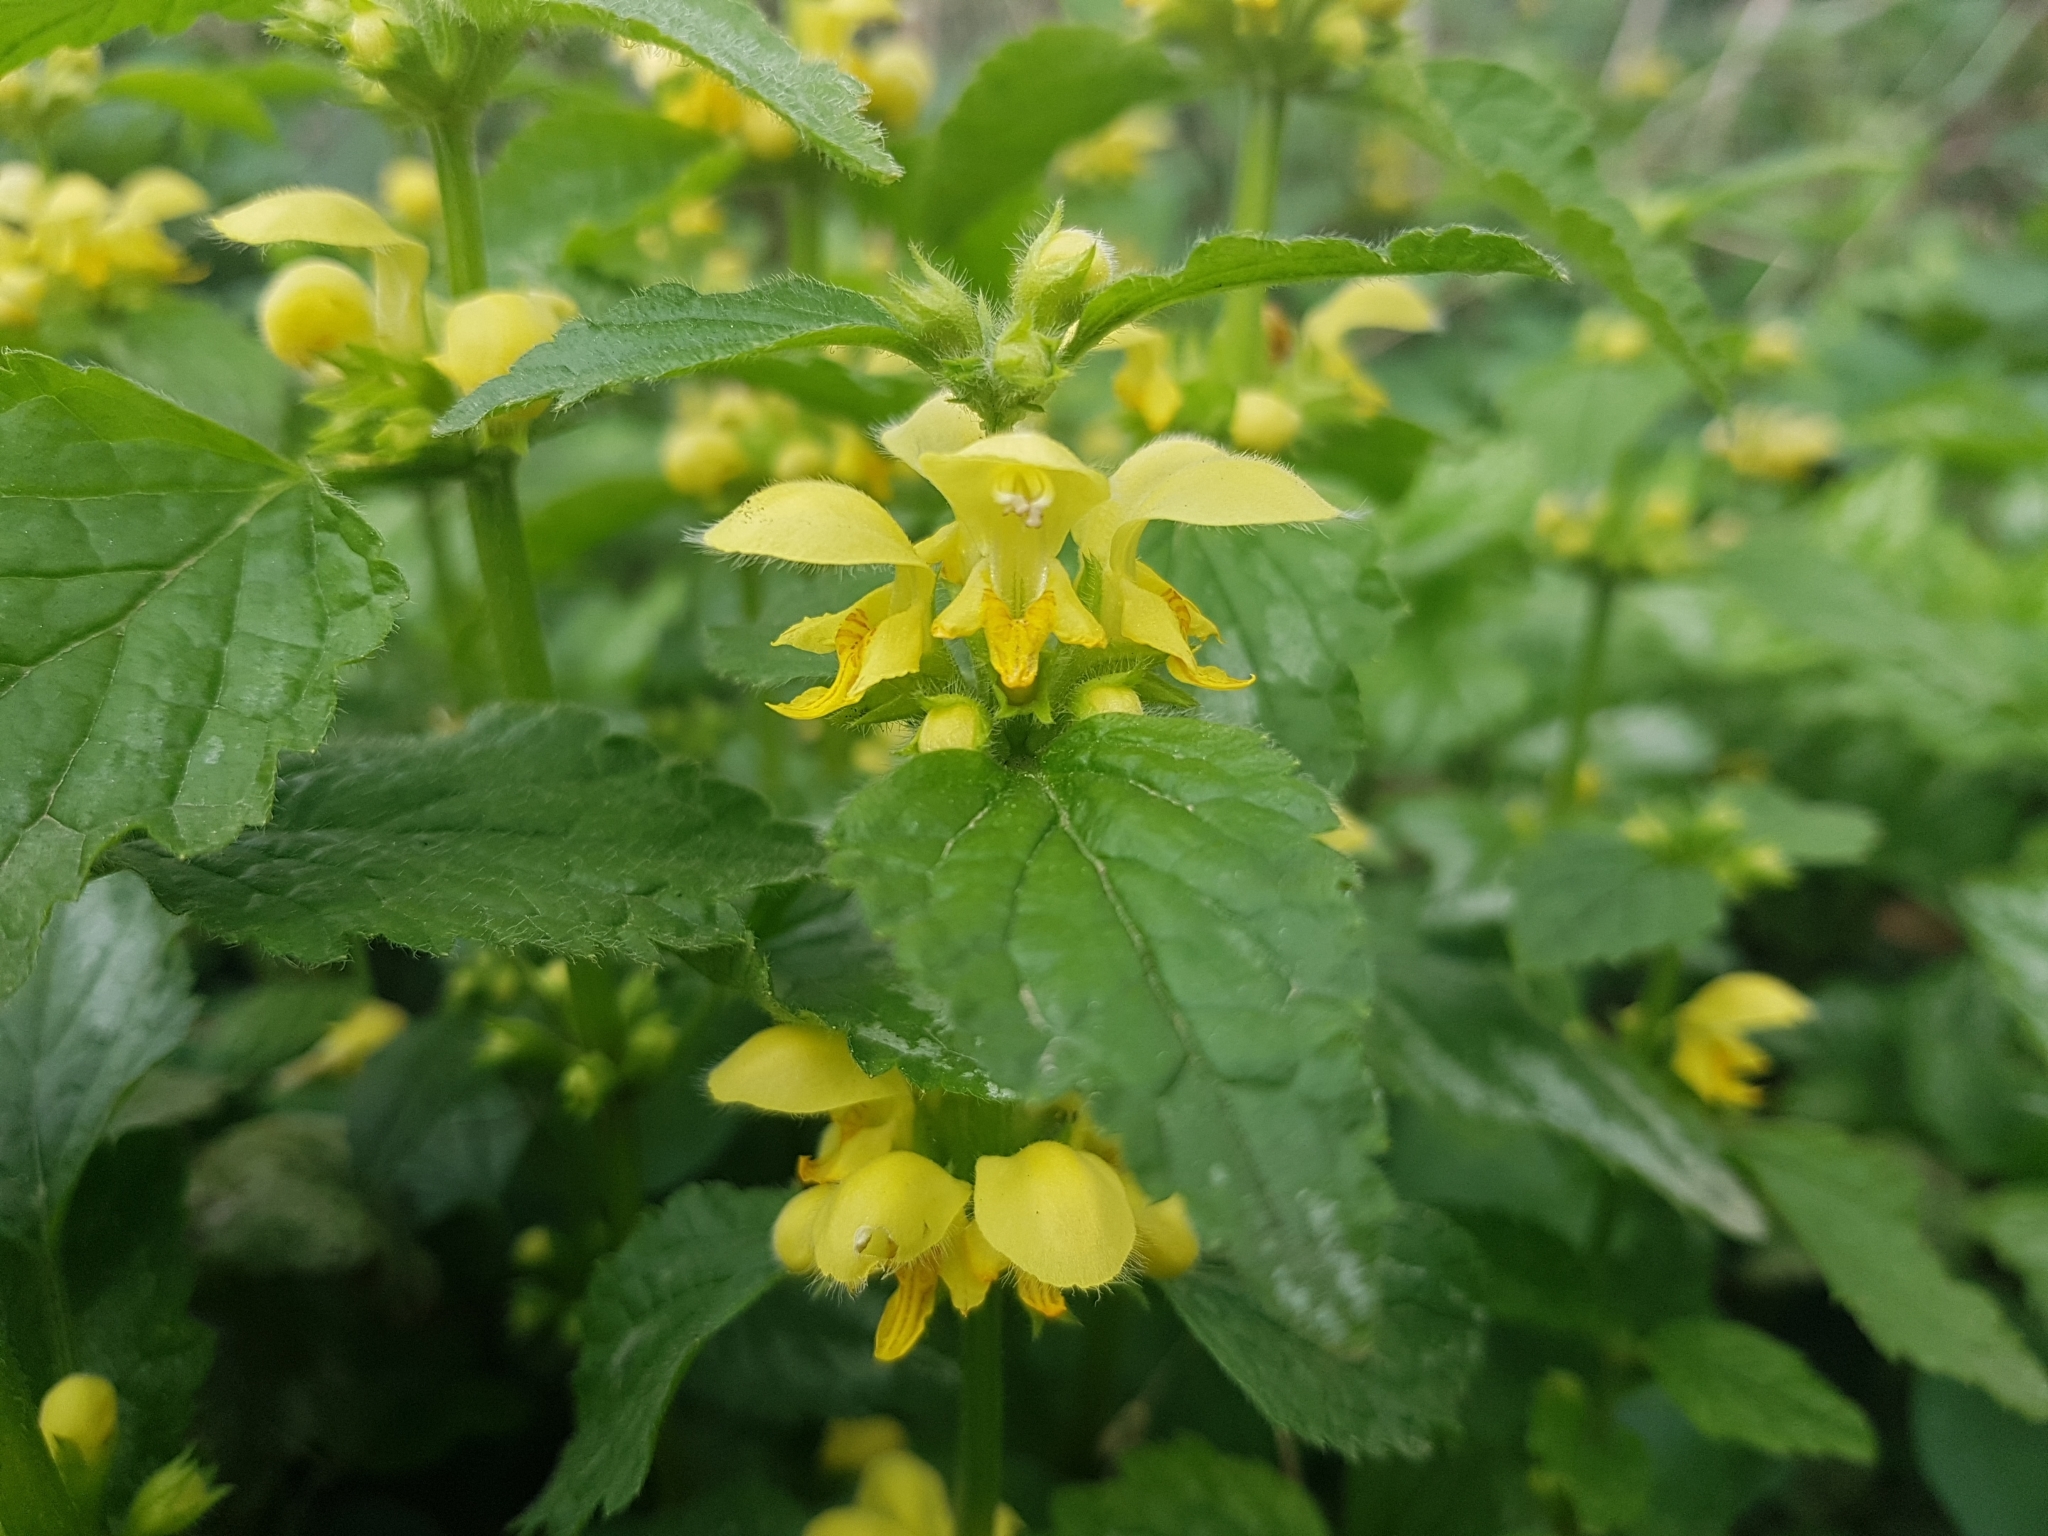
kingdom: Plantae
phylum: Tracheophyta
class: Magnoliopsida
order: Lamiales
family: Lamiaceae
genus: Lamium
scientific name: Lamium galeobdolon
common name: Yellow archangel
